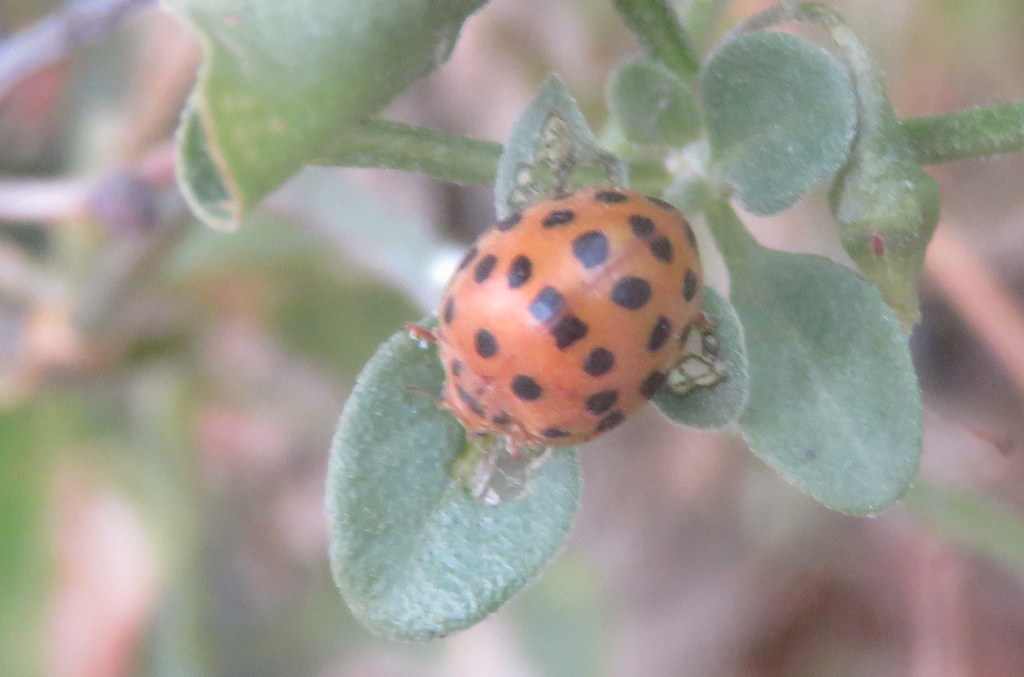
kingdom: Animalia
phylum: Arthropoda
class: Insecta
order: Coleoptera
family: Coccinellidae
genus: Henosepilachna
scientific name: Henosepilachna vigintioctopunctata
